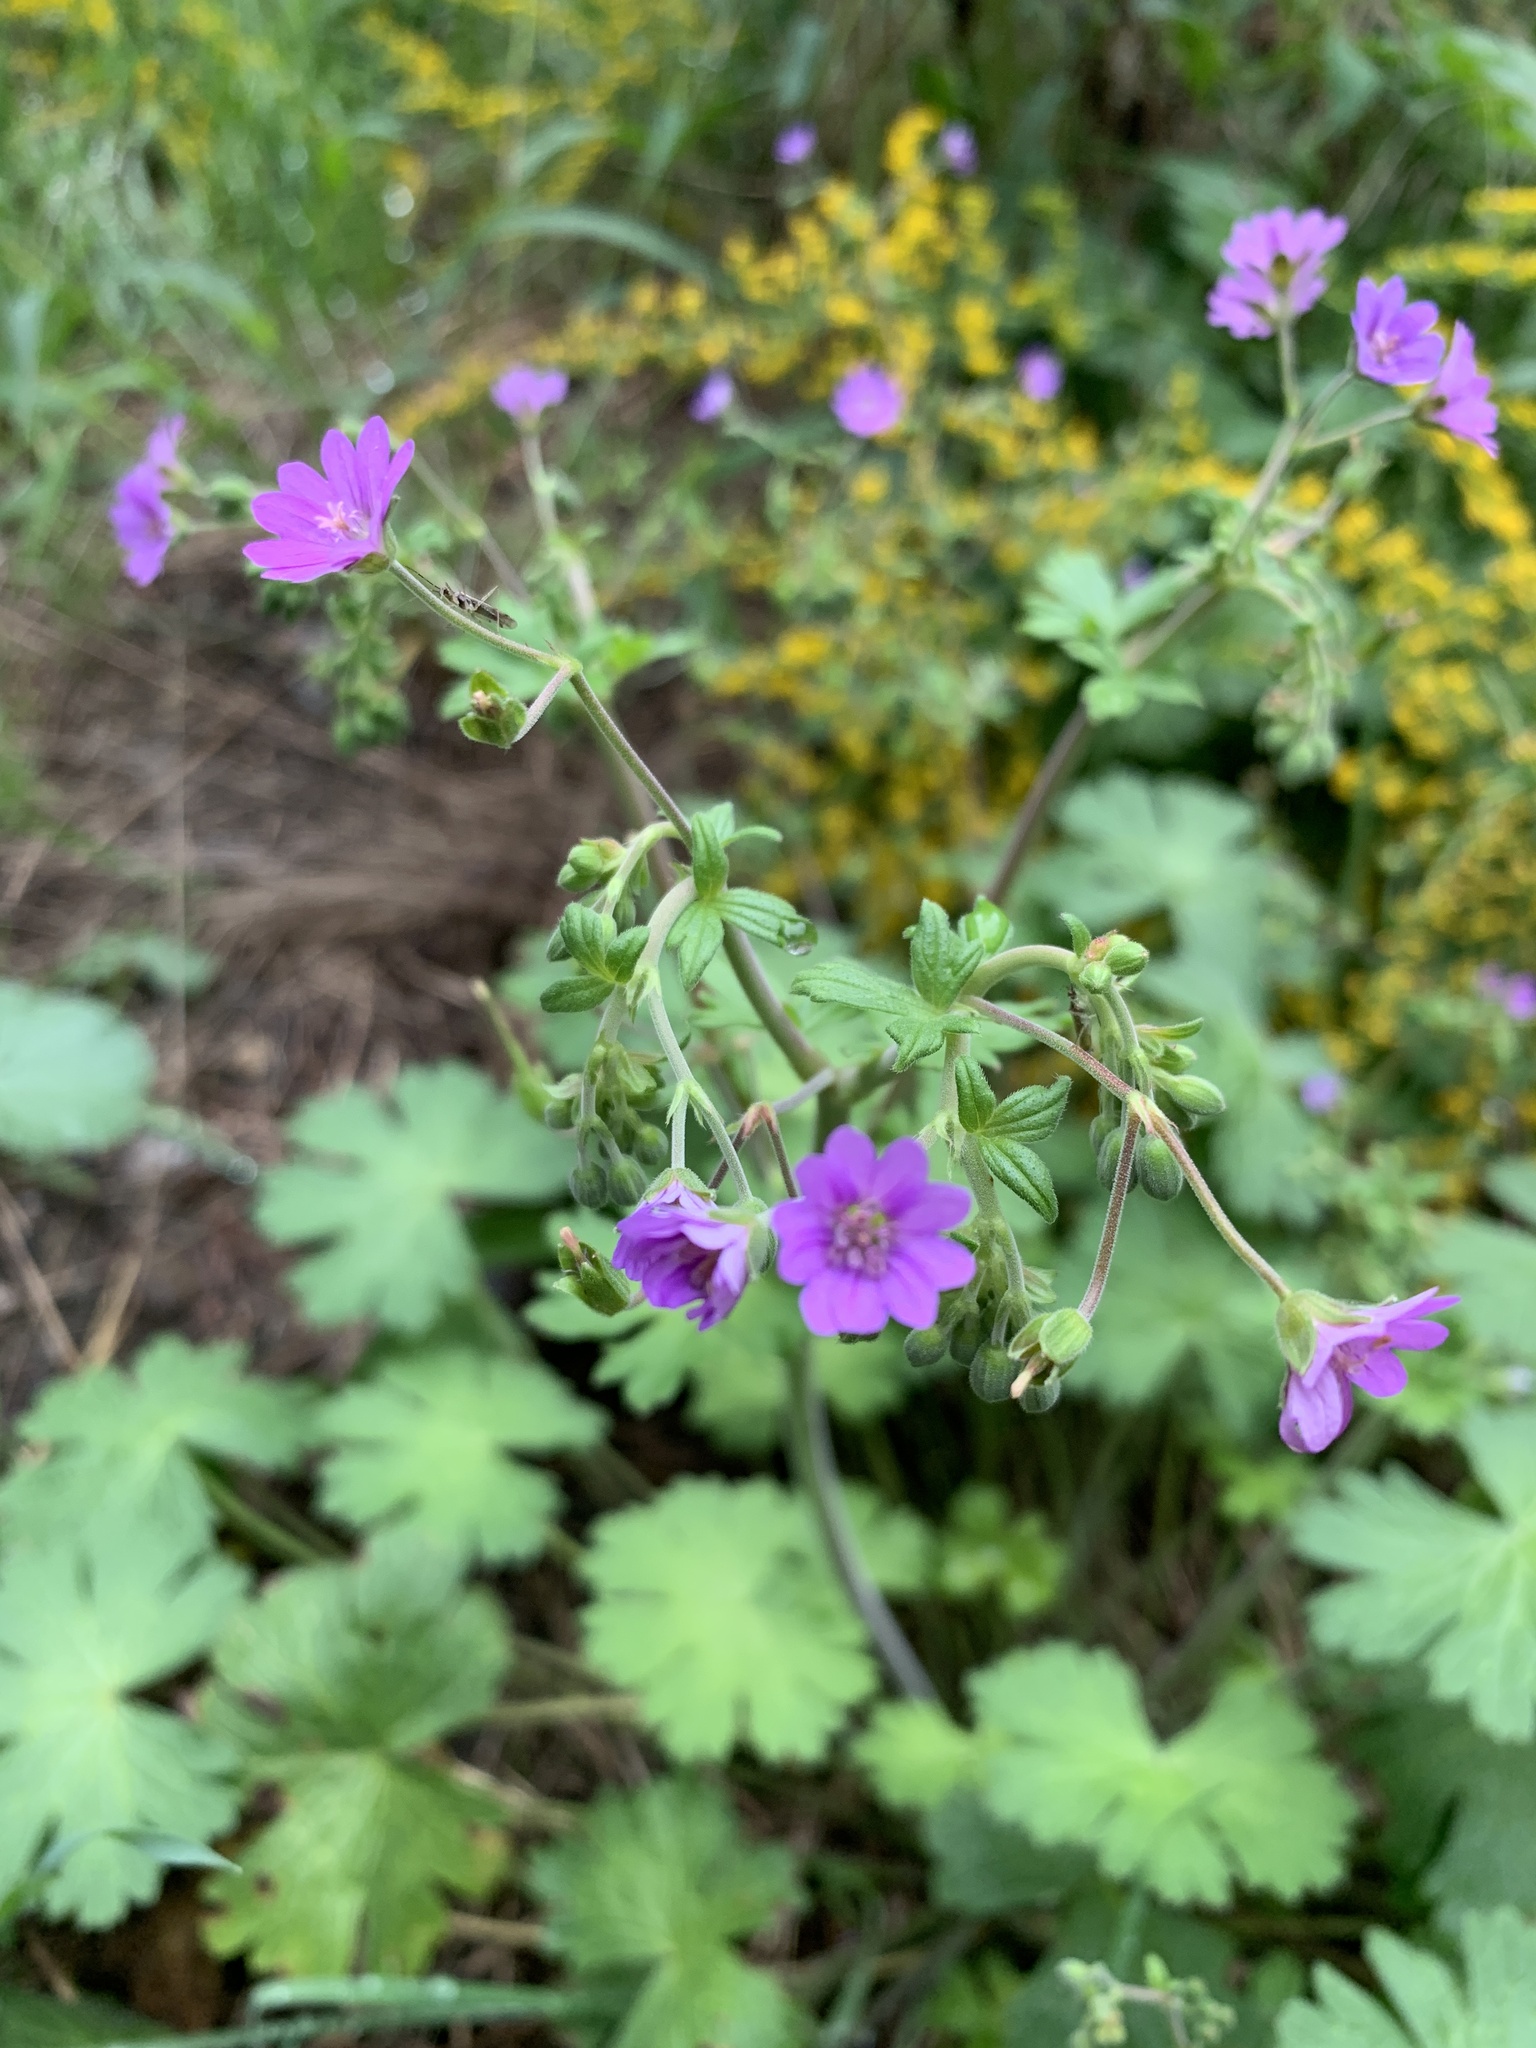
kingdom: Plantae
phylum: Tracheophyta
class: Magnoliopsida
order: Geraniales
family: Geraniaceae
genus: Geranium
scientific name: Geranium pyrenaicum
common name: Hedgerow crane's-bill
